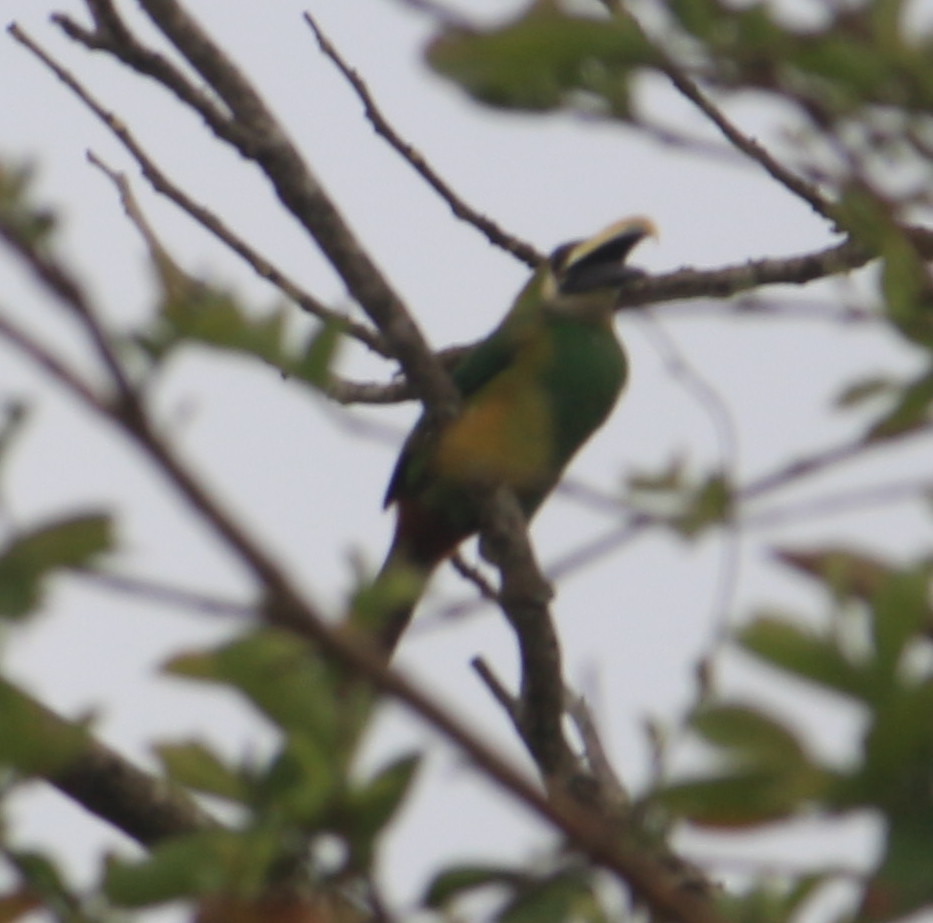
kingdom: Animalia
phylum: Chordata
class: Aves
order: Piciformes
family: Ramphastidae
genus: Aulacorhynchus
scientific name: Aulacorhynchus prasinus
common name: Emerald toucanet
